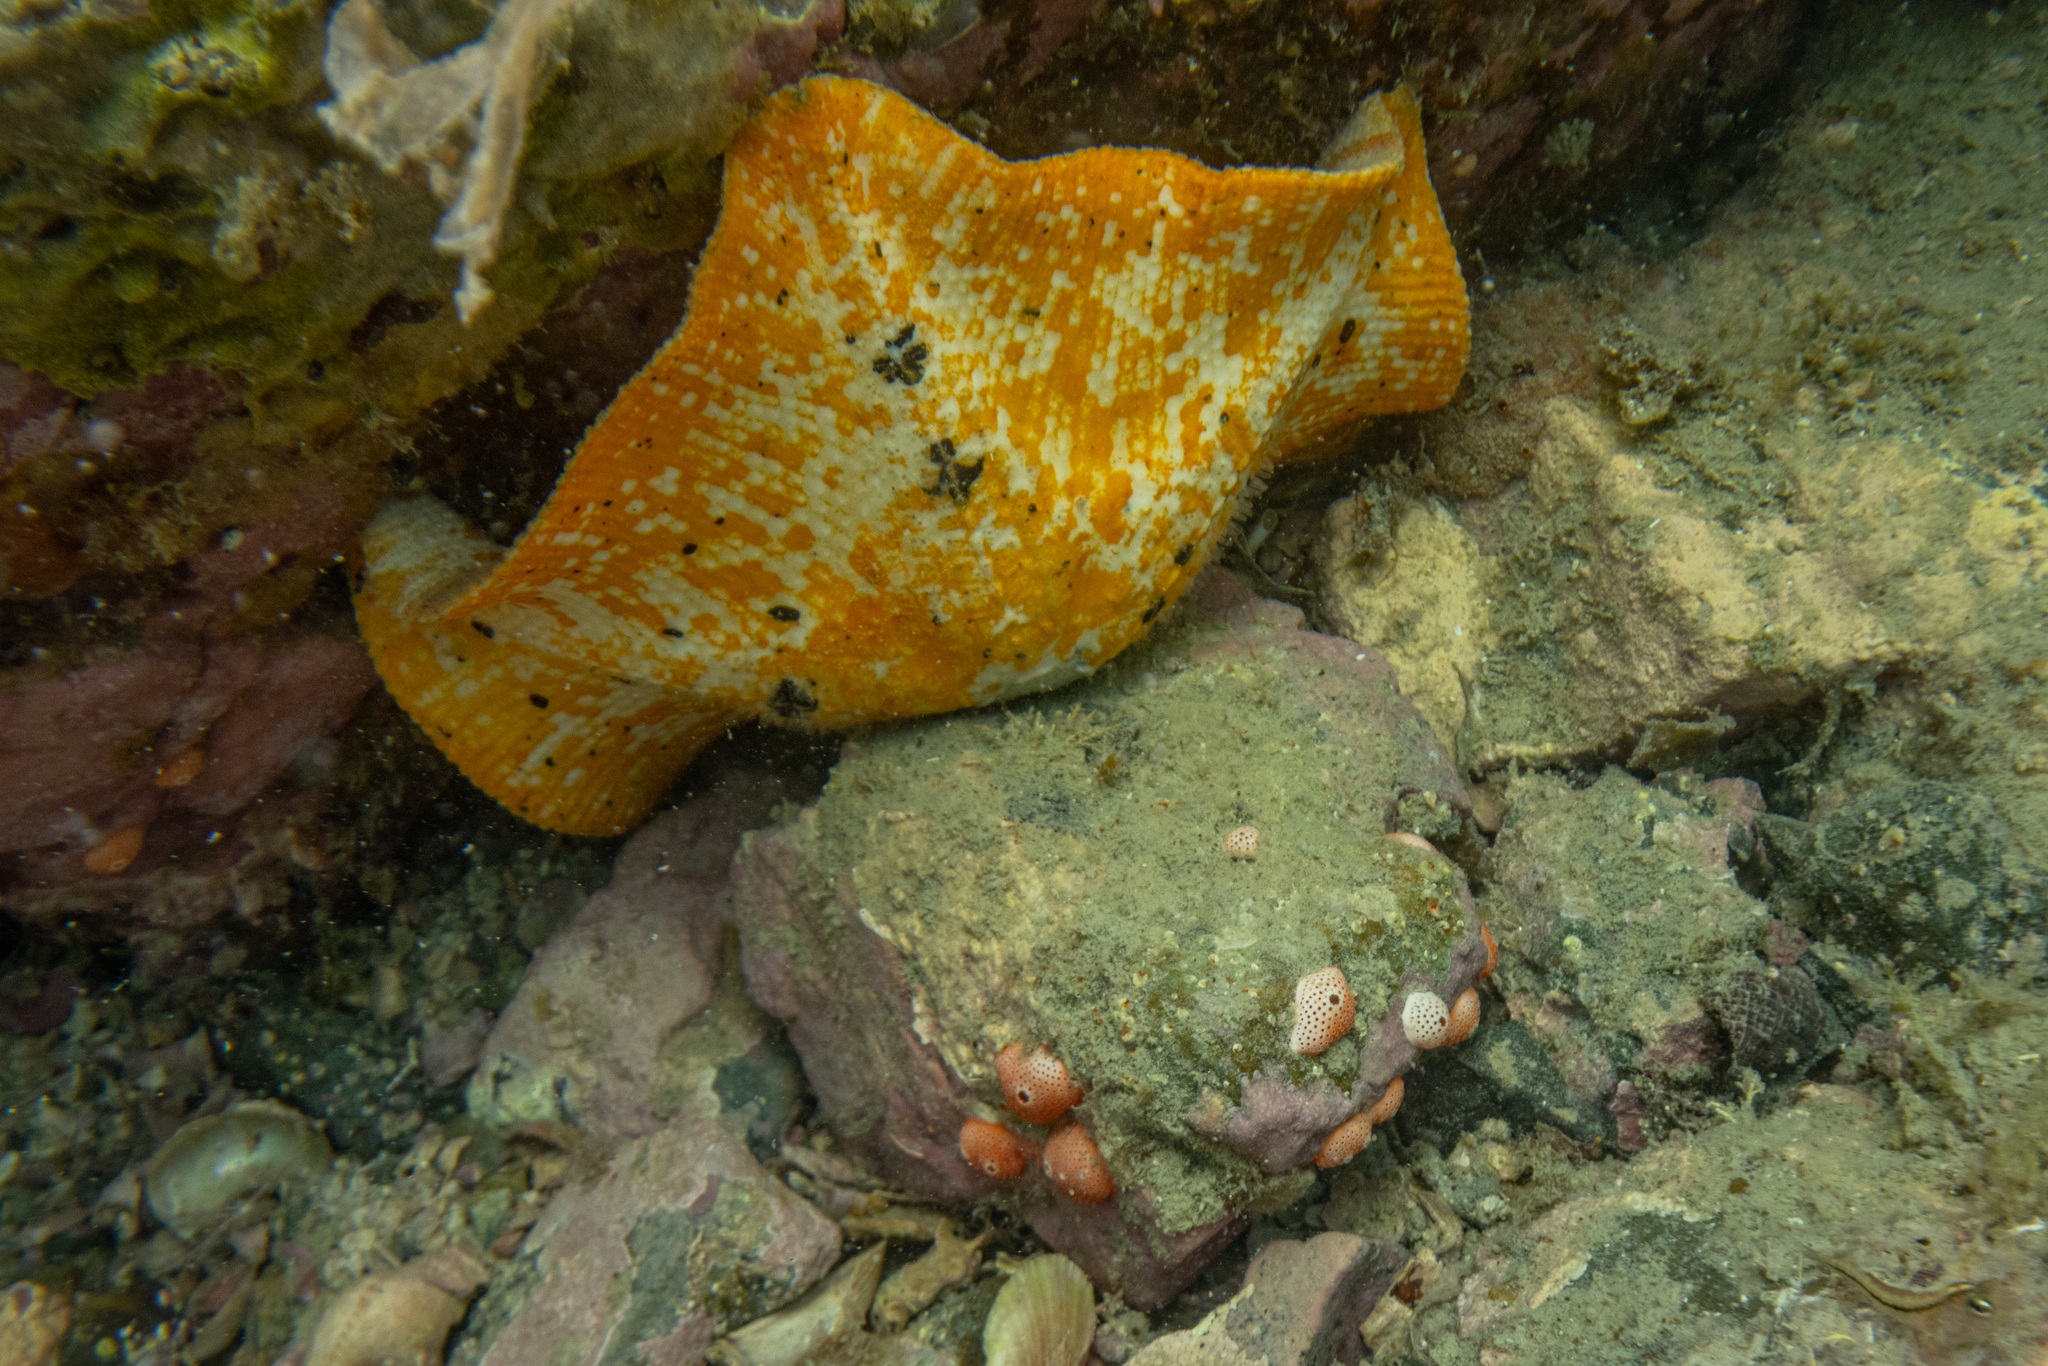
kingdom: Animalia
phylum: Echinodermata
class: Asteroidea
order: Valvatida
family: Asterinidae
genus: Stegnaster
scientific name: Stegnaster inflatus
